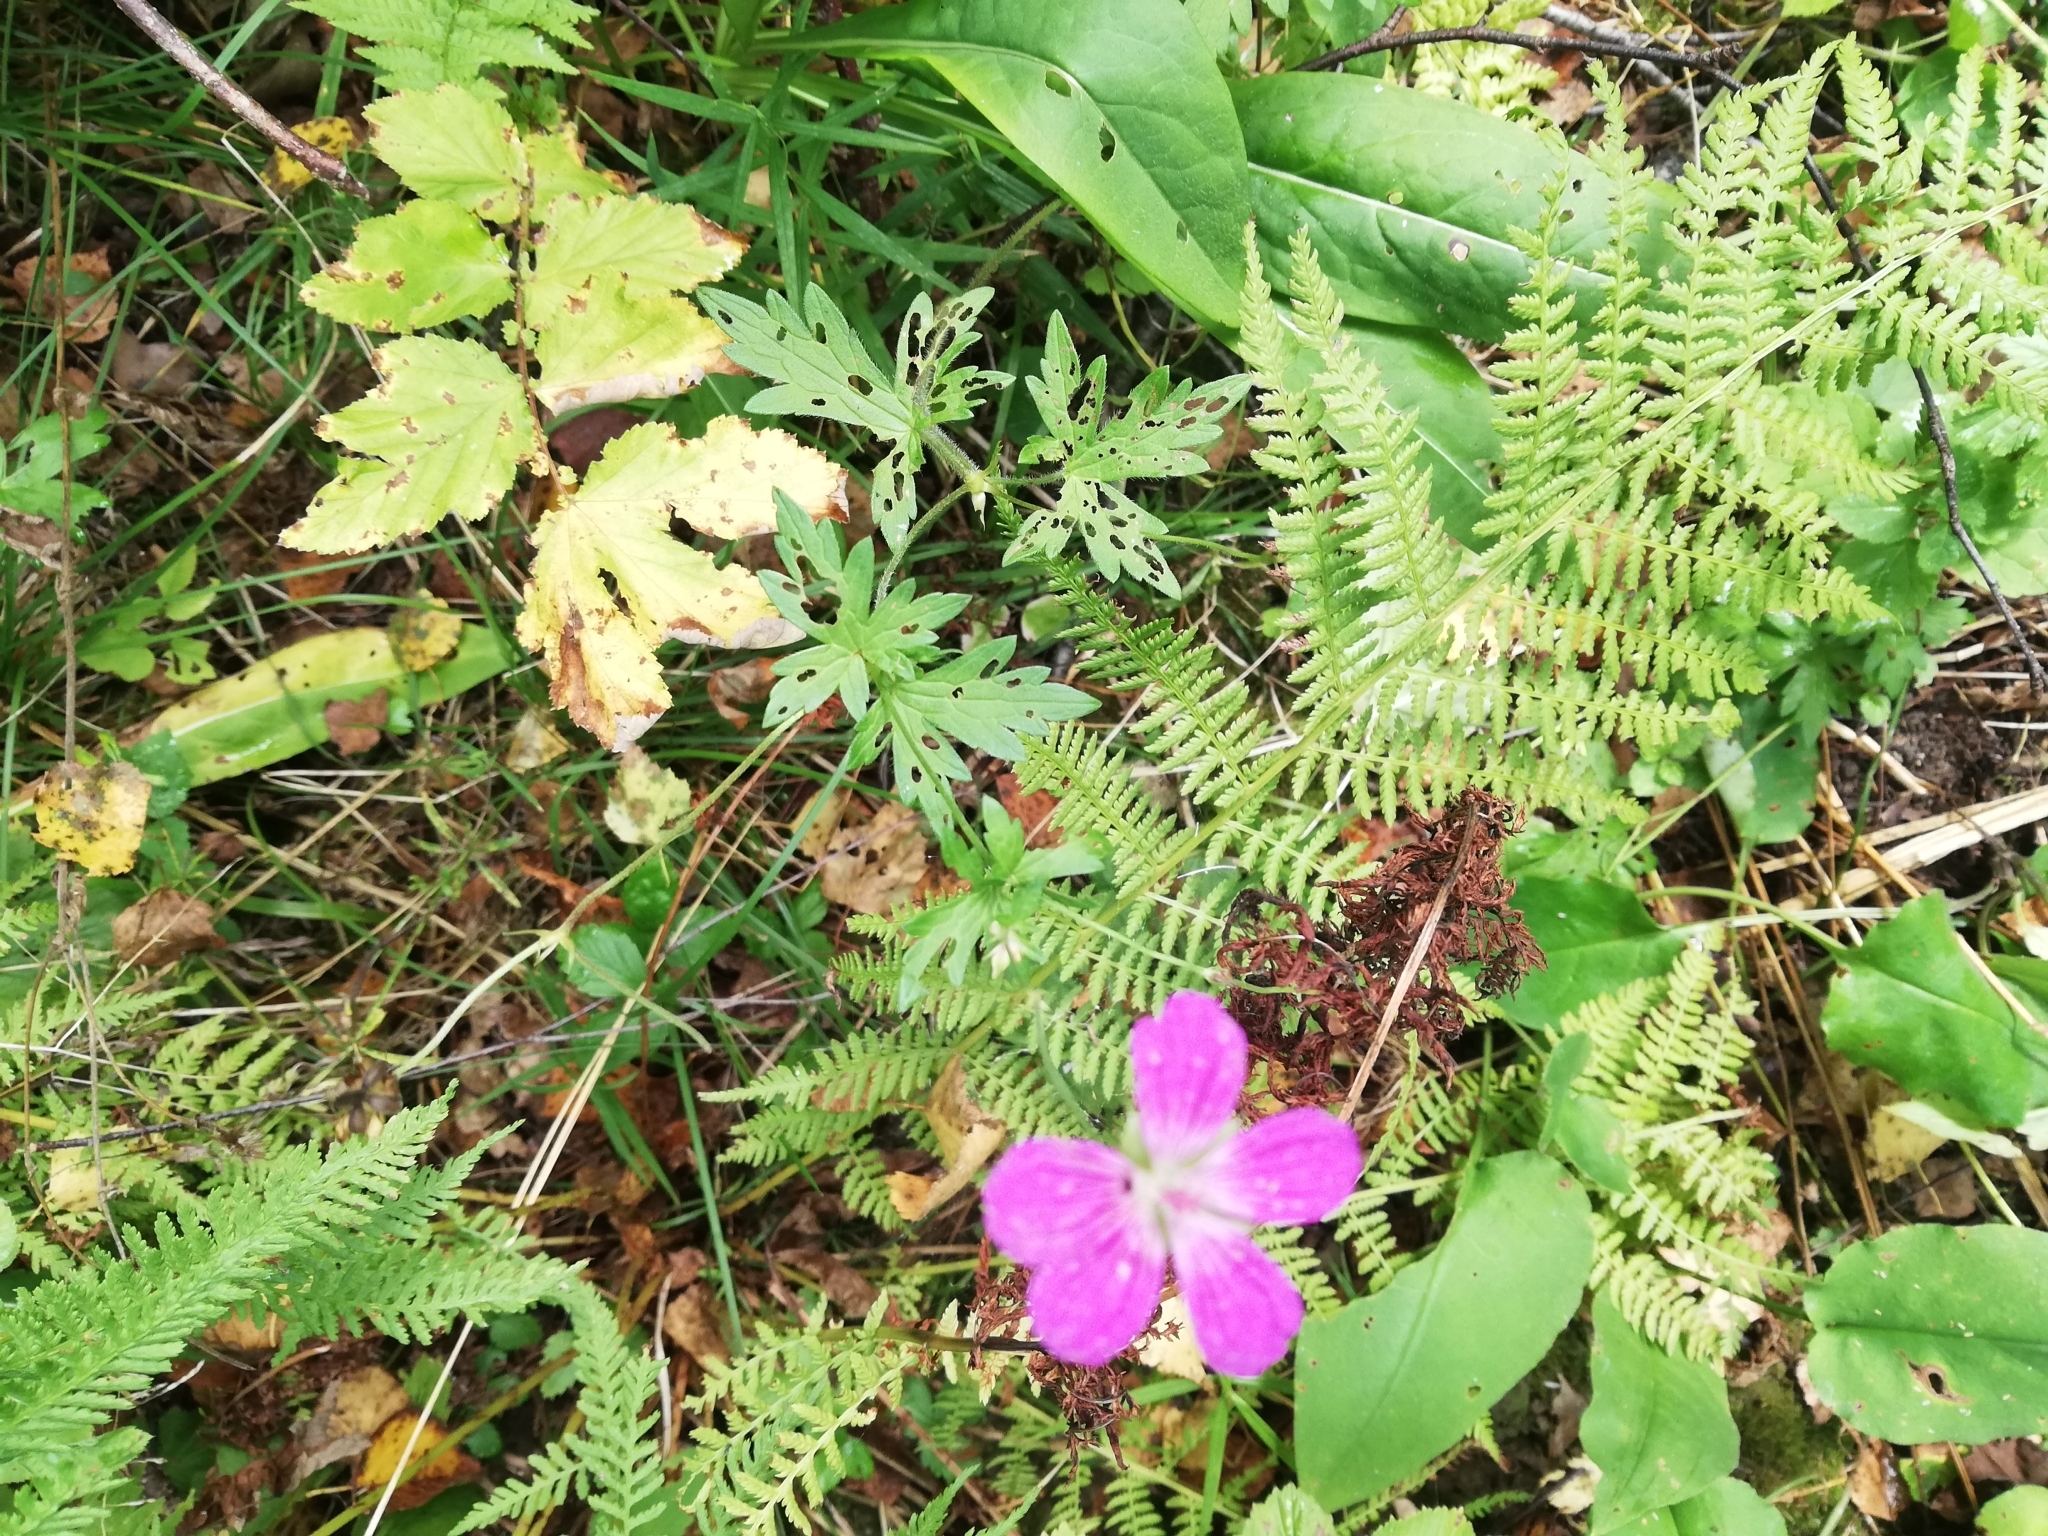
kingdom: Plantae
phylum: Tracheophyta
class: Magnoliopsida
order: Geraniales
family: Geraniaceae
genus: Geranium
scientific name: Geranium palustre
